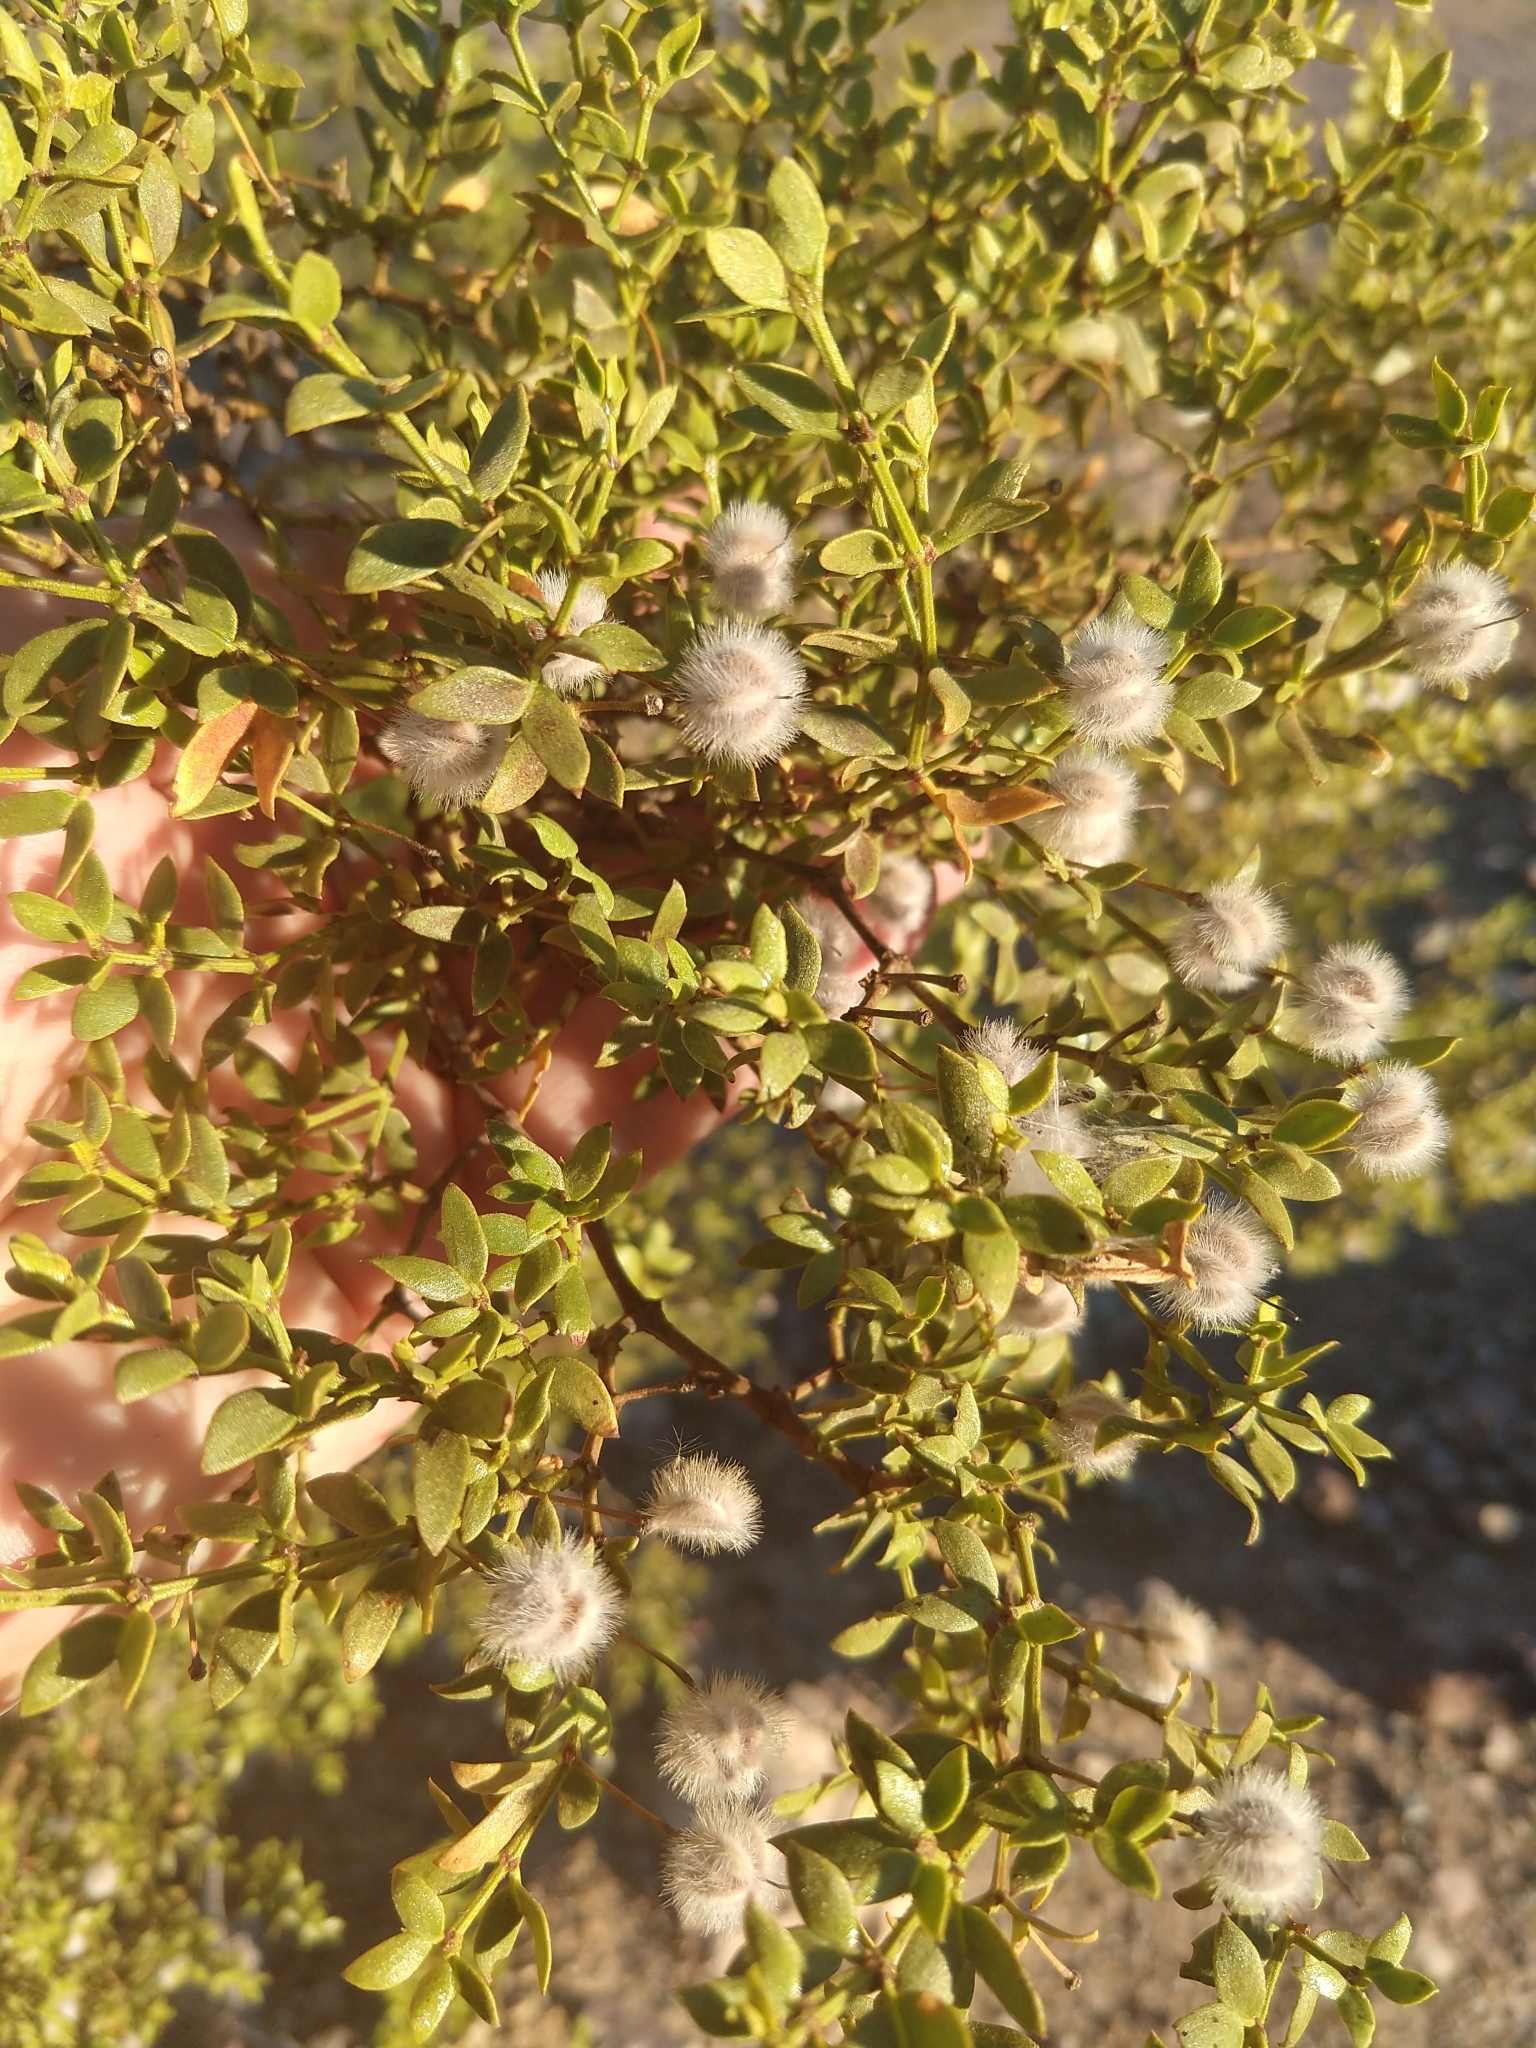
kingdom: Plantae
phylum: Tracheophyta
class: Magnoliopsida
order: Zygophyllales
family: Zygophyllaceae
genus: Larrea
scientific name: Larrea tridentata
